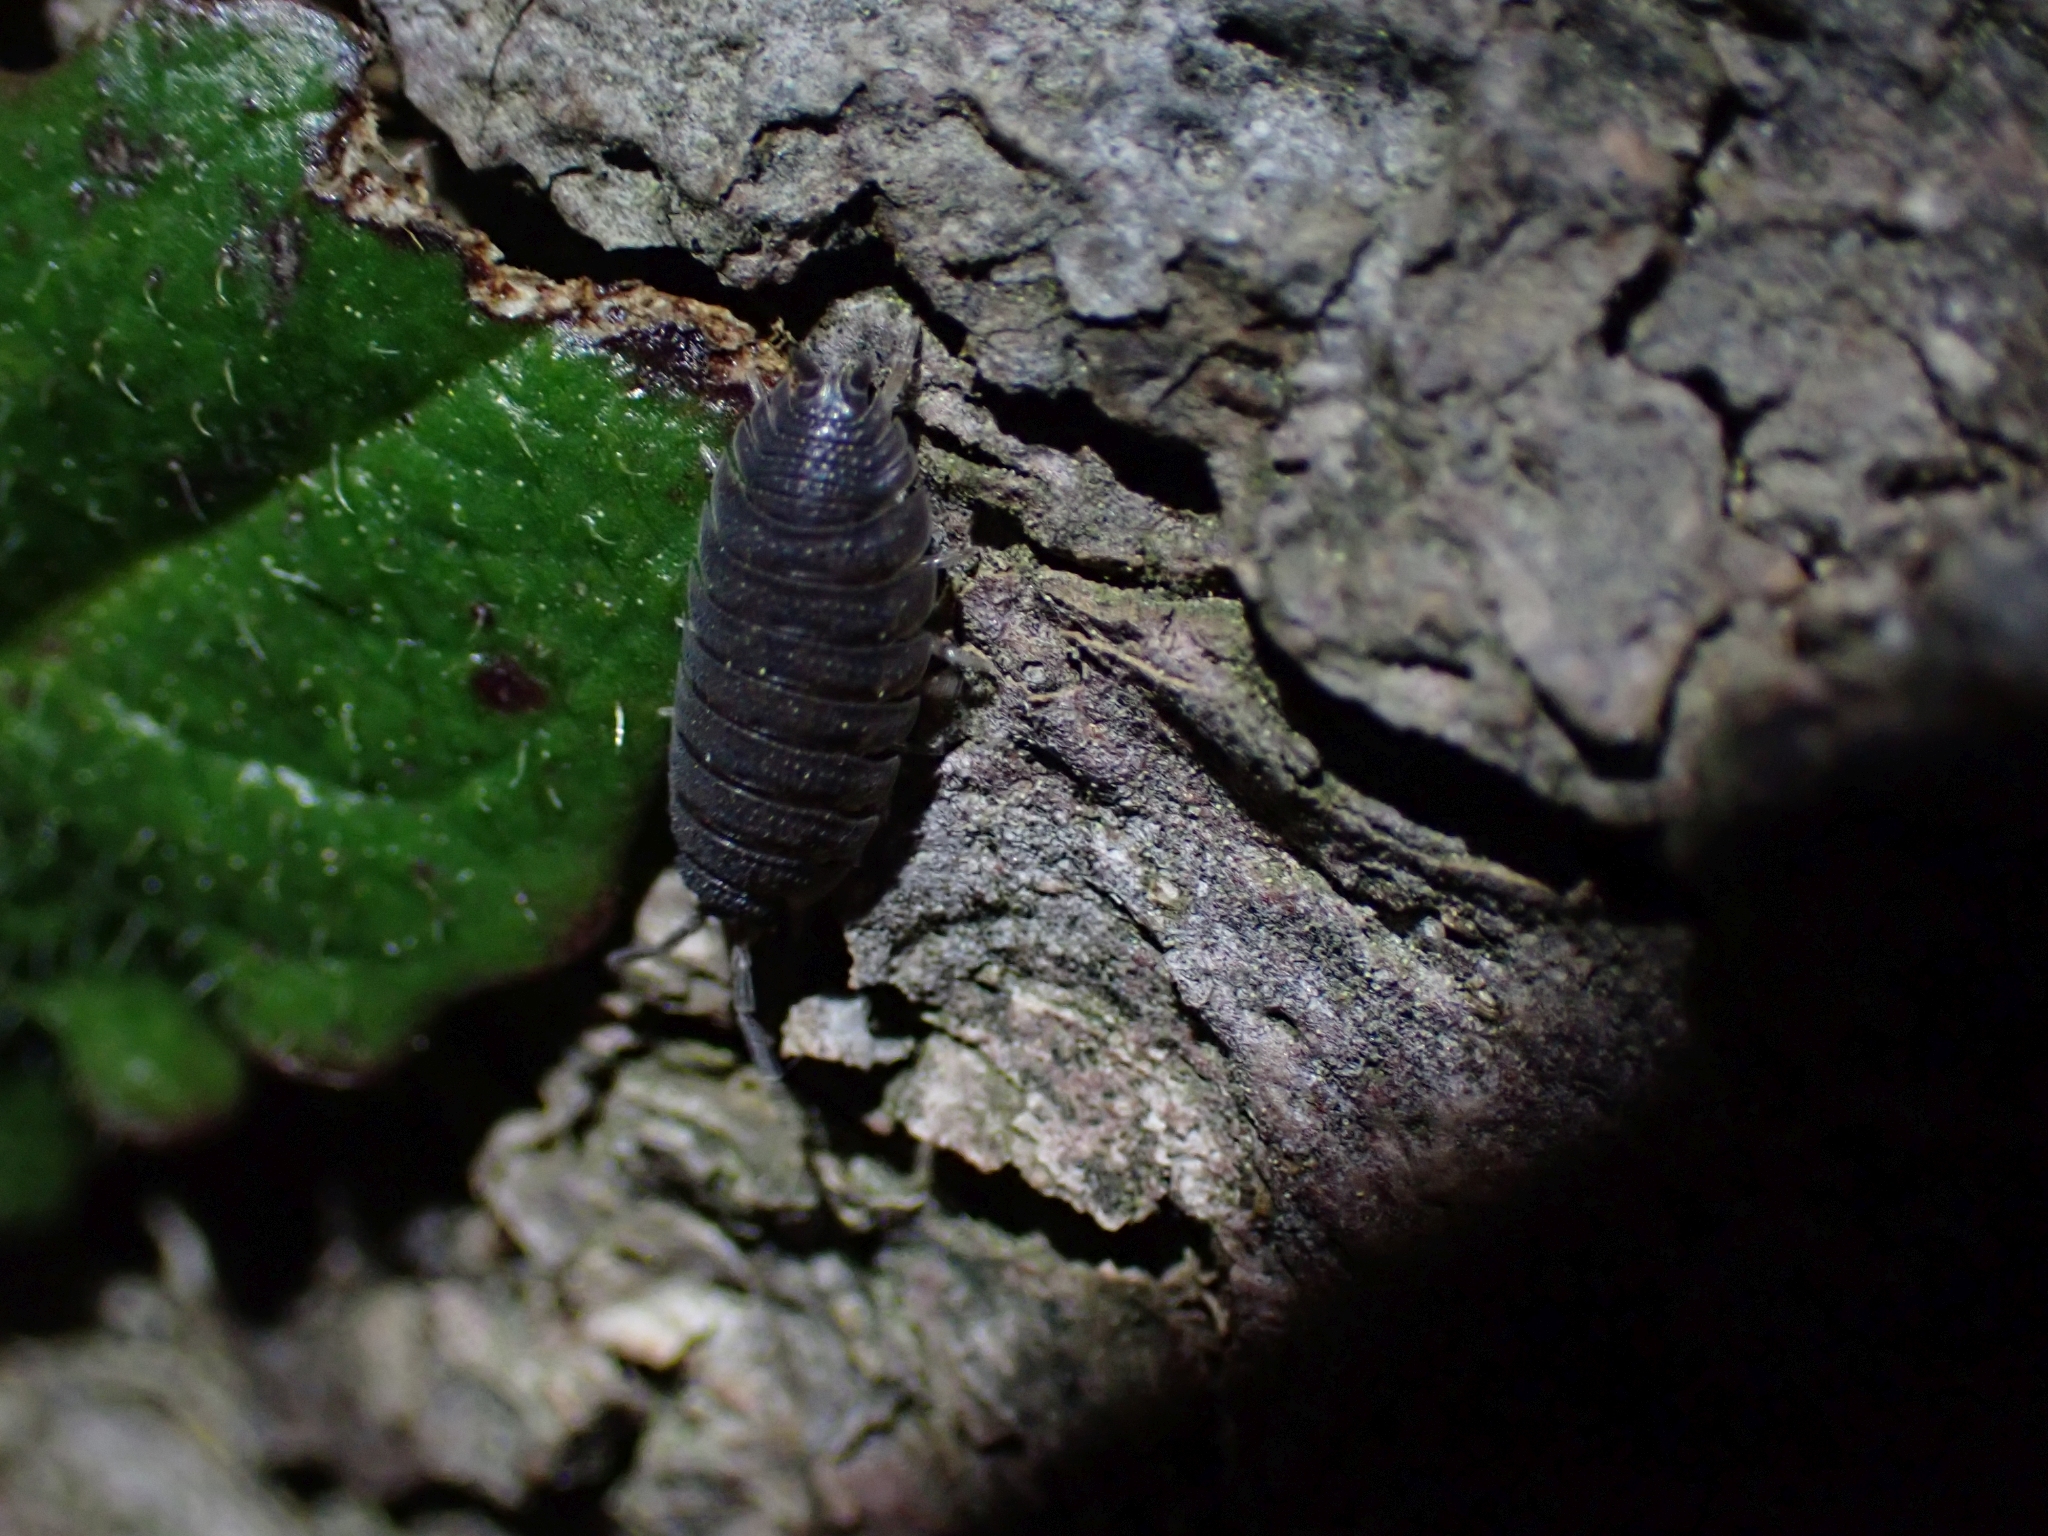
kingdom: Animalia
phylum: Arthropoda
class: Malacostraca
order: Isopoda
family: Porcellionidae
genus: Porcellio
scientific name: Porcellio scaber
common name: Common rough woodlouse
